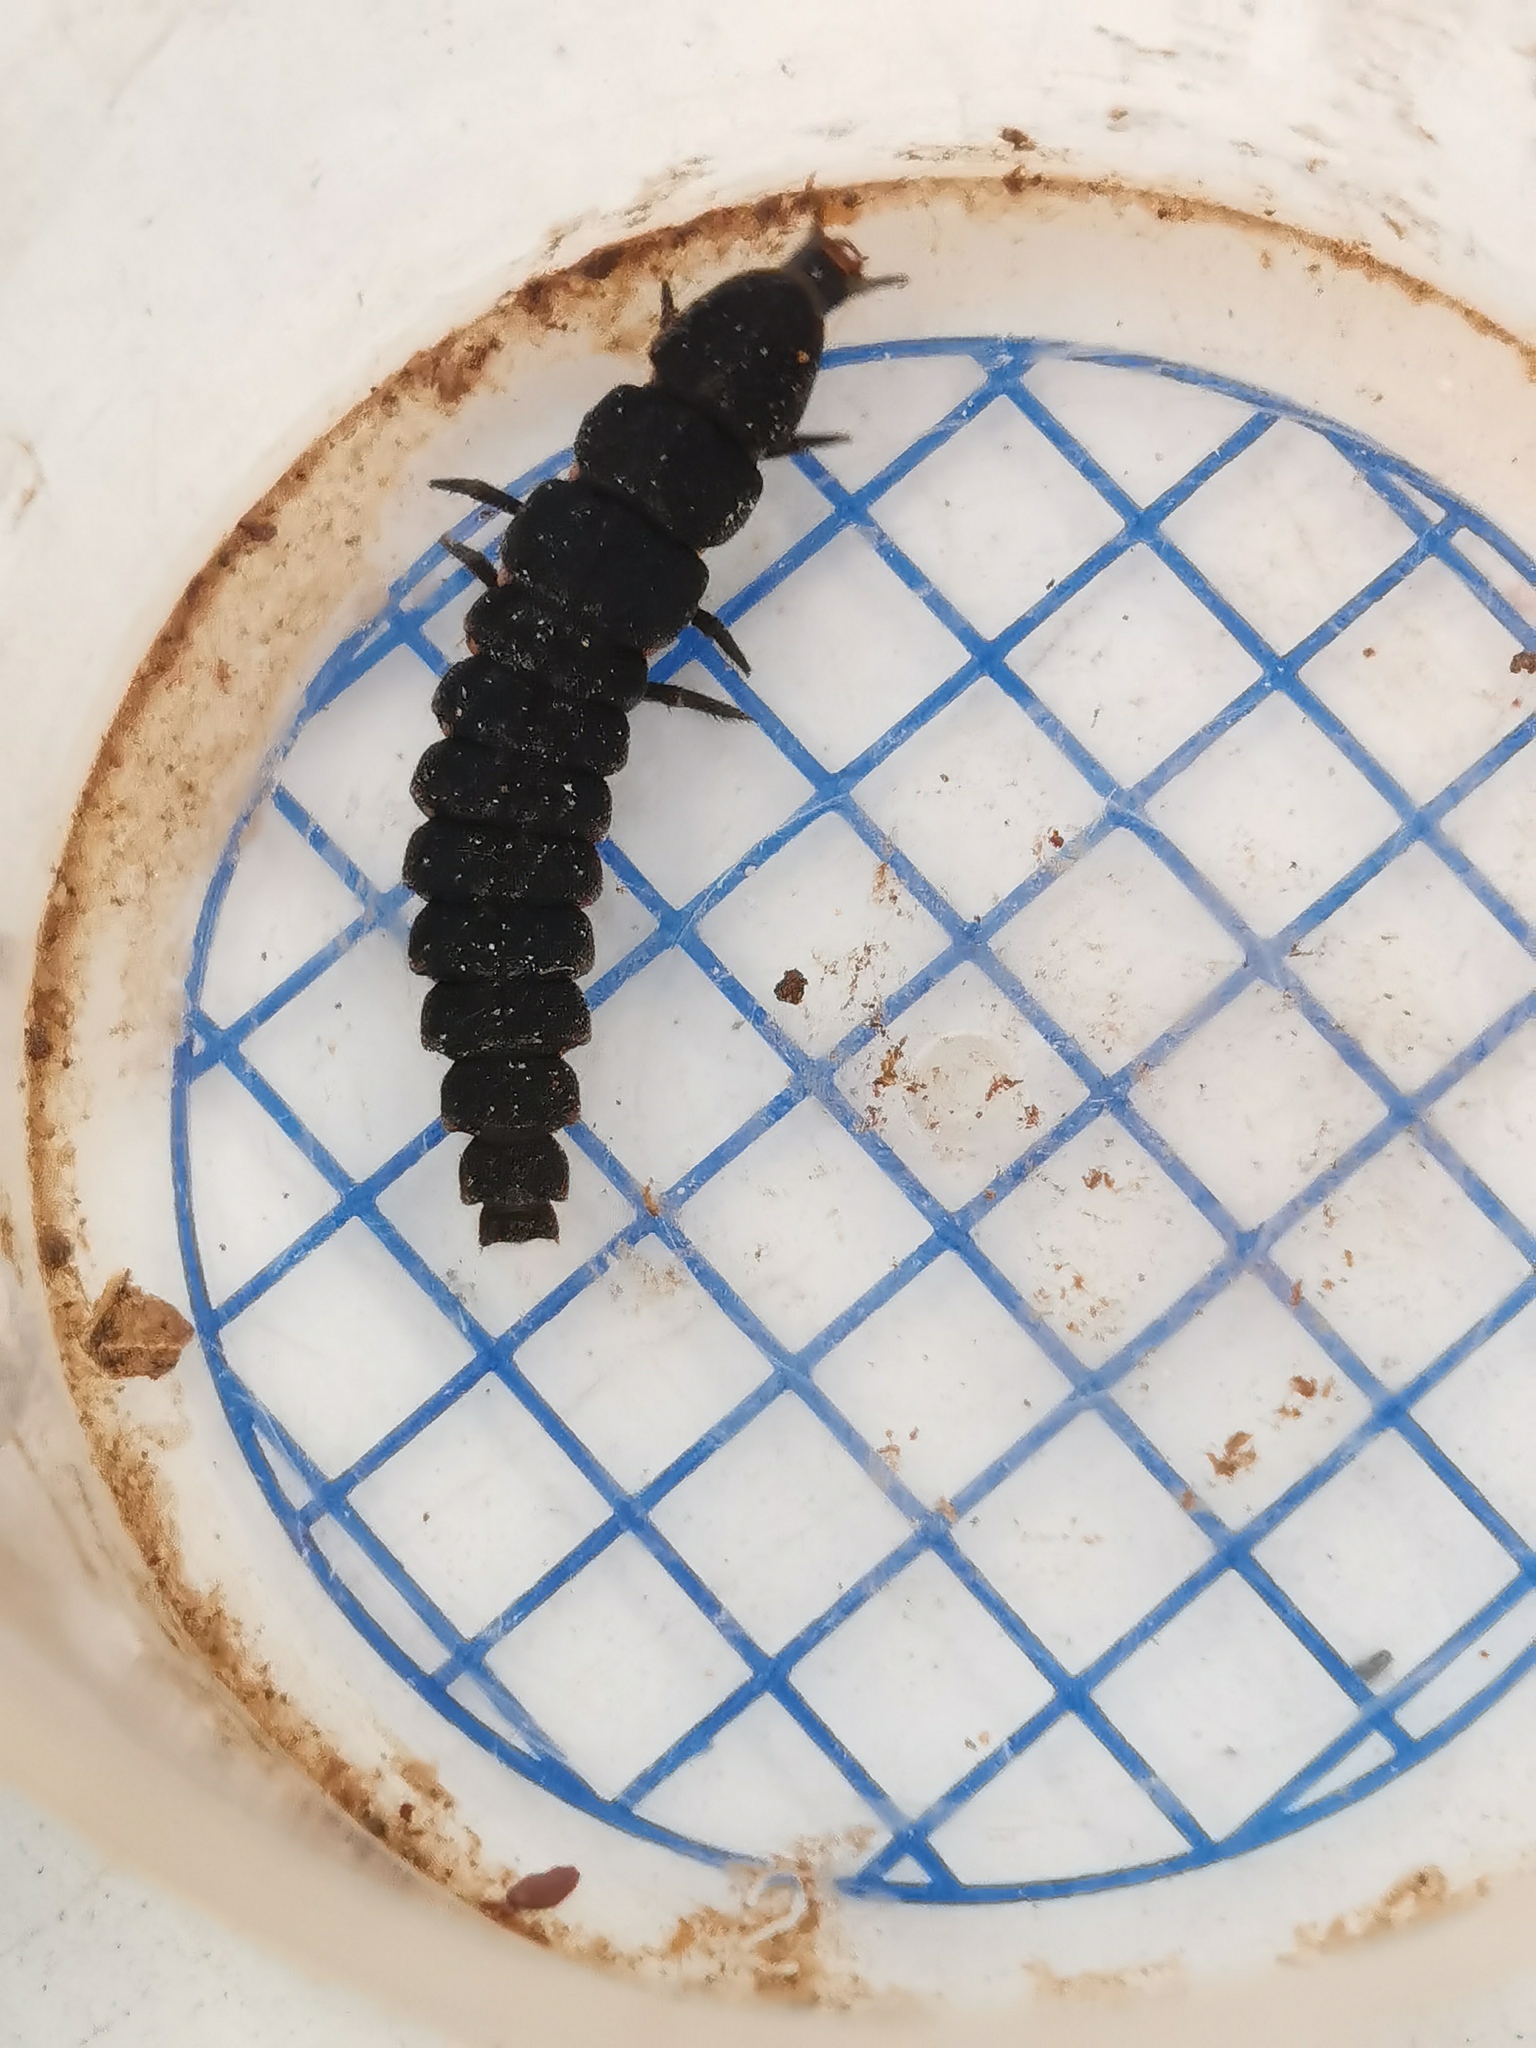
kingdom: Animalia
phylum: Arthropoda
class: Insecta
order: Coleoptera
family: Lampyridae
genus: Nyctophila
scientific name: Nyctophila reichii
